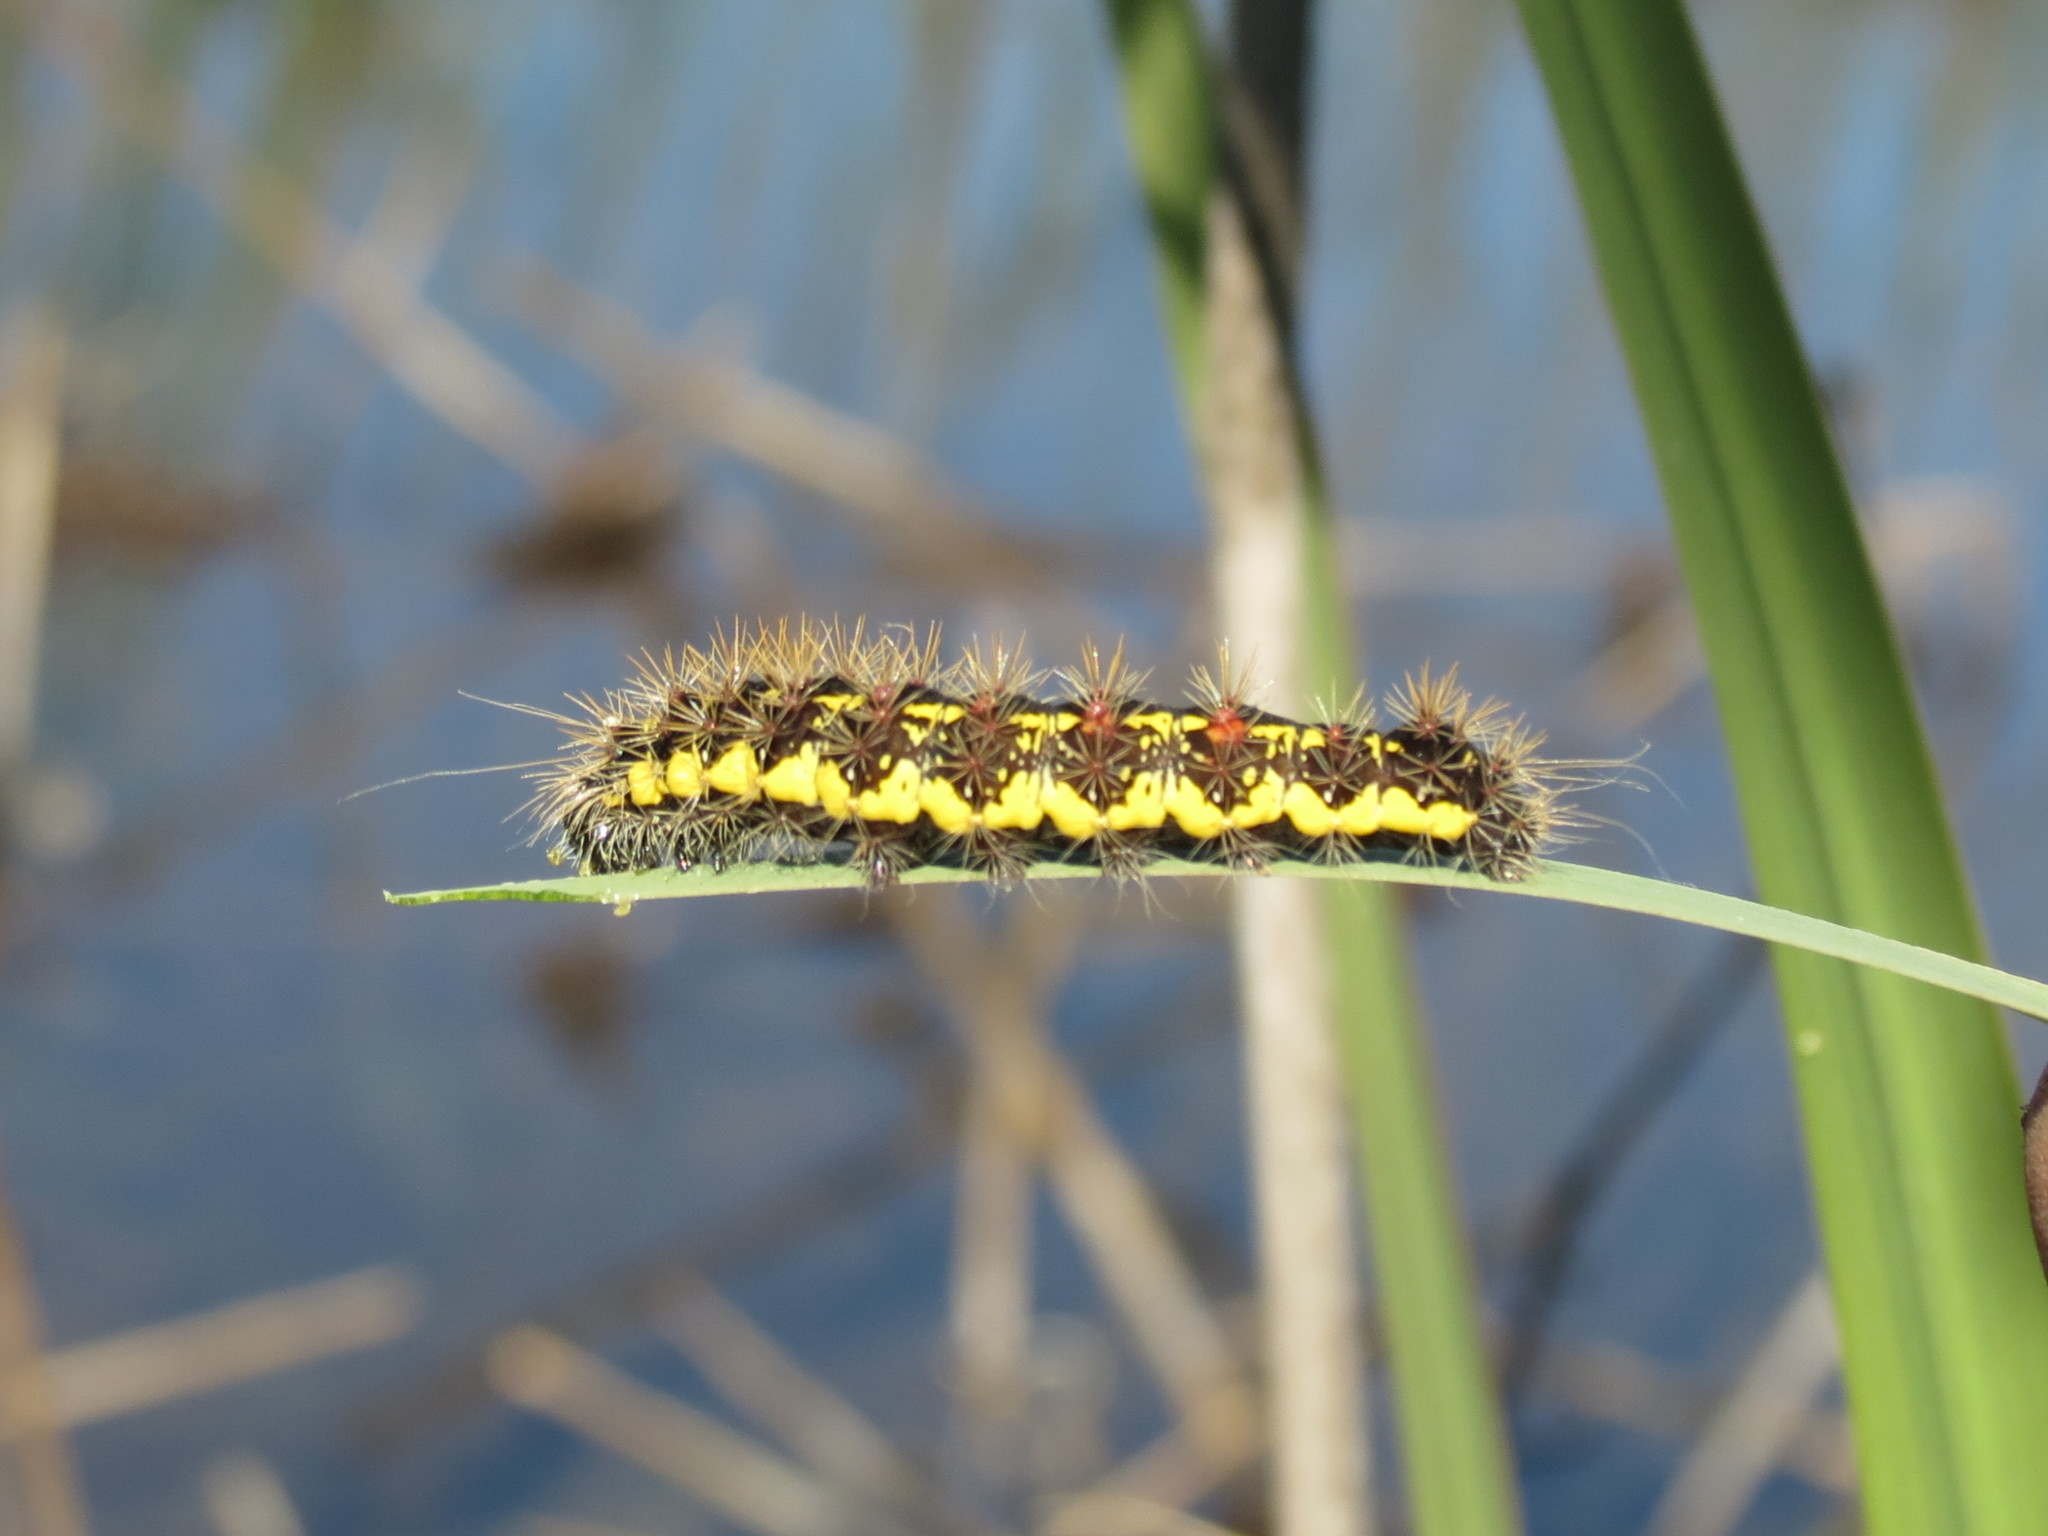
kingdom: Animalia
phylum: Arthropoda
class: Insecta
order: Lepidoptera
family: Noctuidae
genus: Acronicta
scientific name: Acronicta oblinita
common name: Smeared dagger
